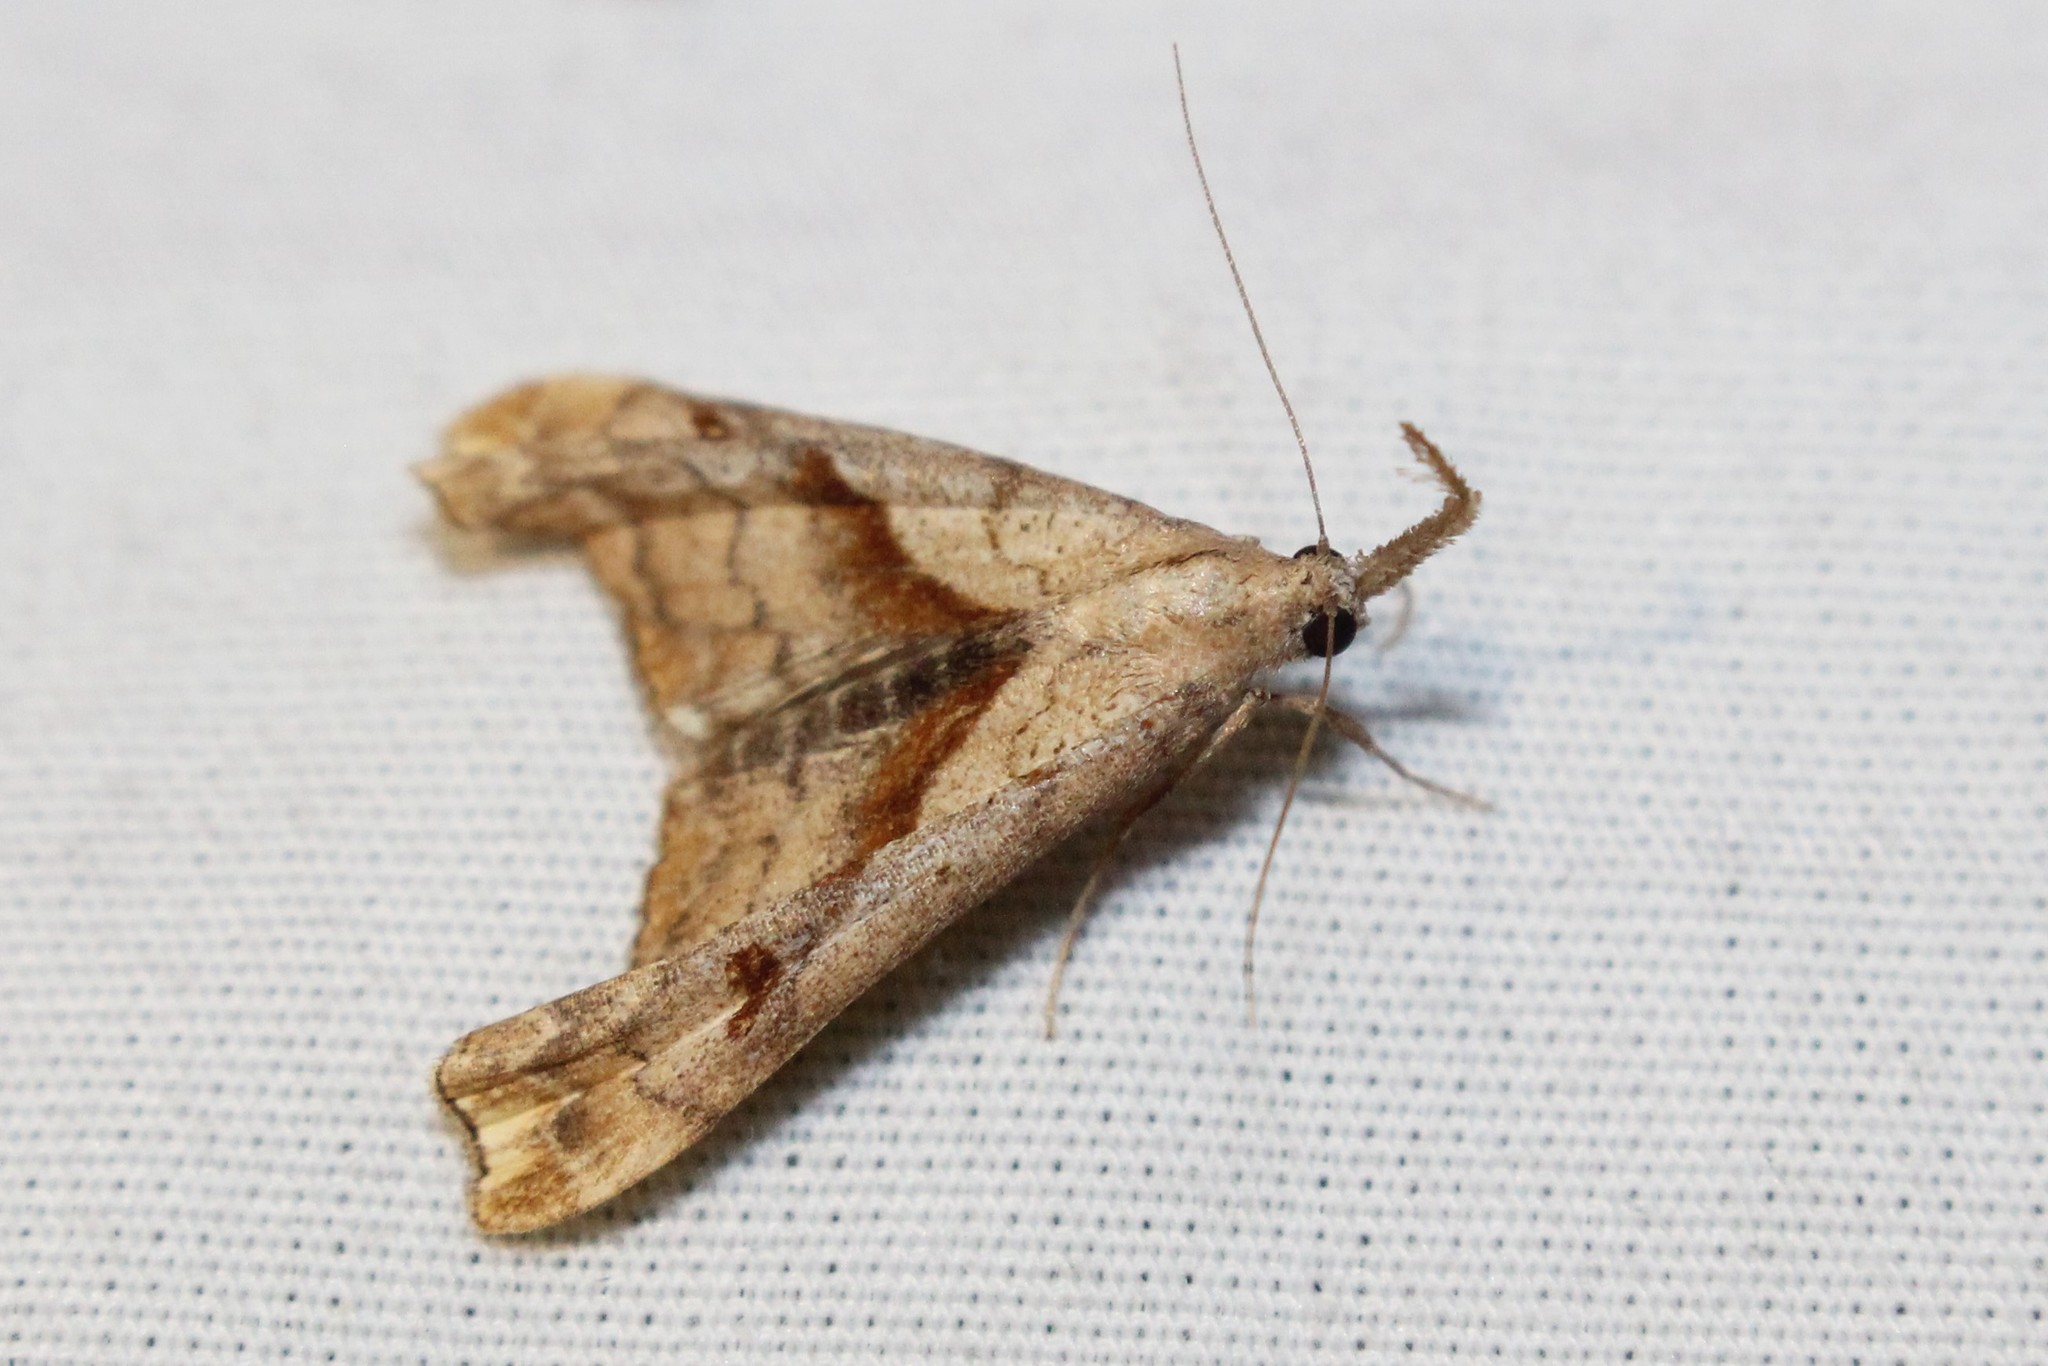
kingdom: Animalia
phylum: Arthropoda
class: Insecta
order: Lepidoptera
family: Erebidae
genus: Palthis
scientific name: Palthis angulalis
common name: Dark-spotted palthis moth
